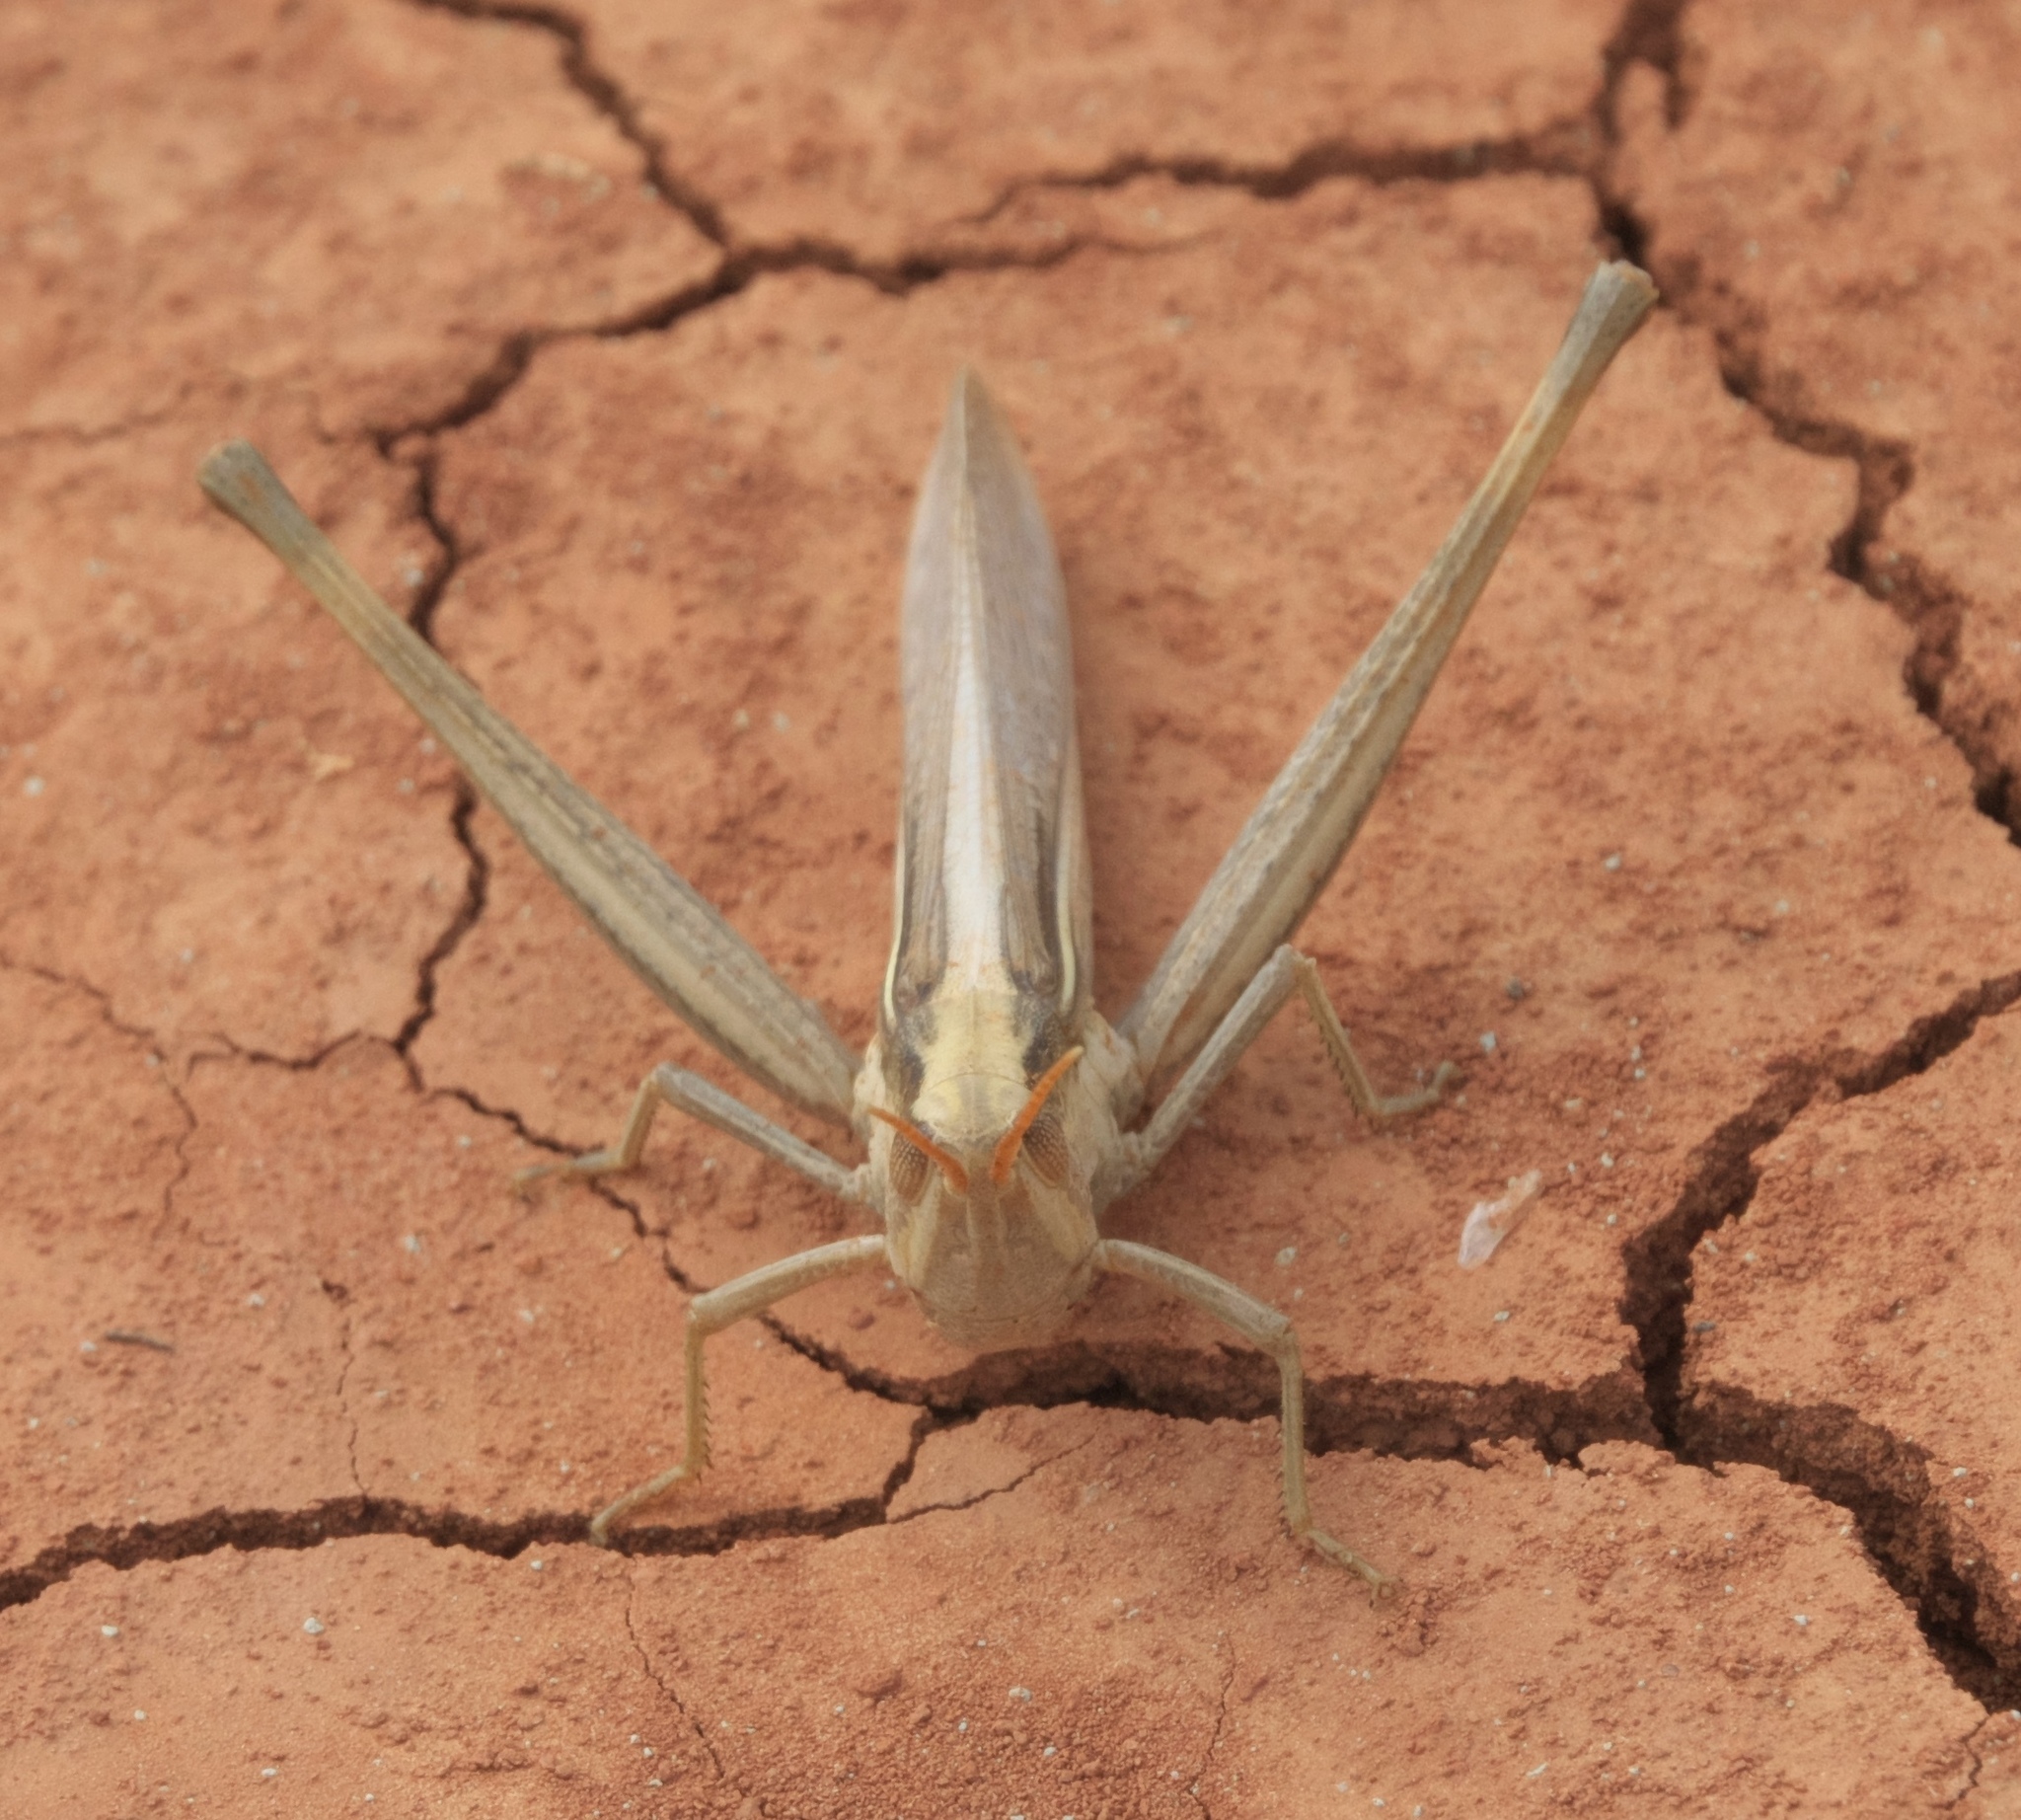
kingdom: Animalia
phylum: Arthropoda
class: Insecta
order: Orthoptera
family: Acrididae
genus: Mermiria
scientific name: Mermiria bivittata
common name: Two-striped mermiria grasshopper
